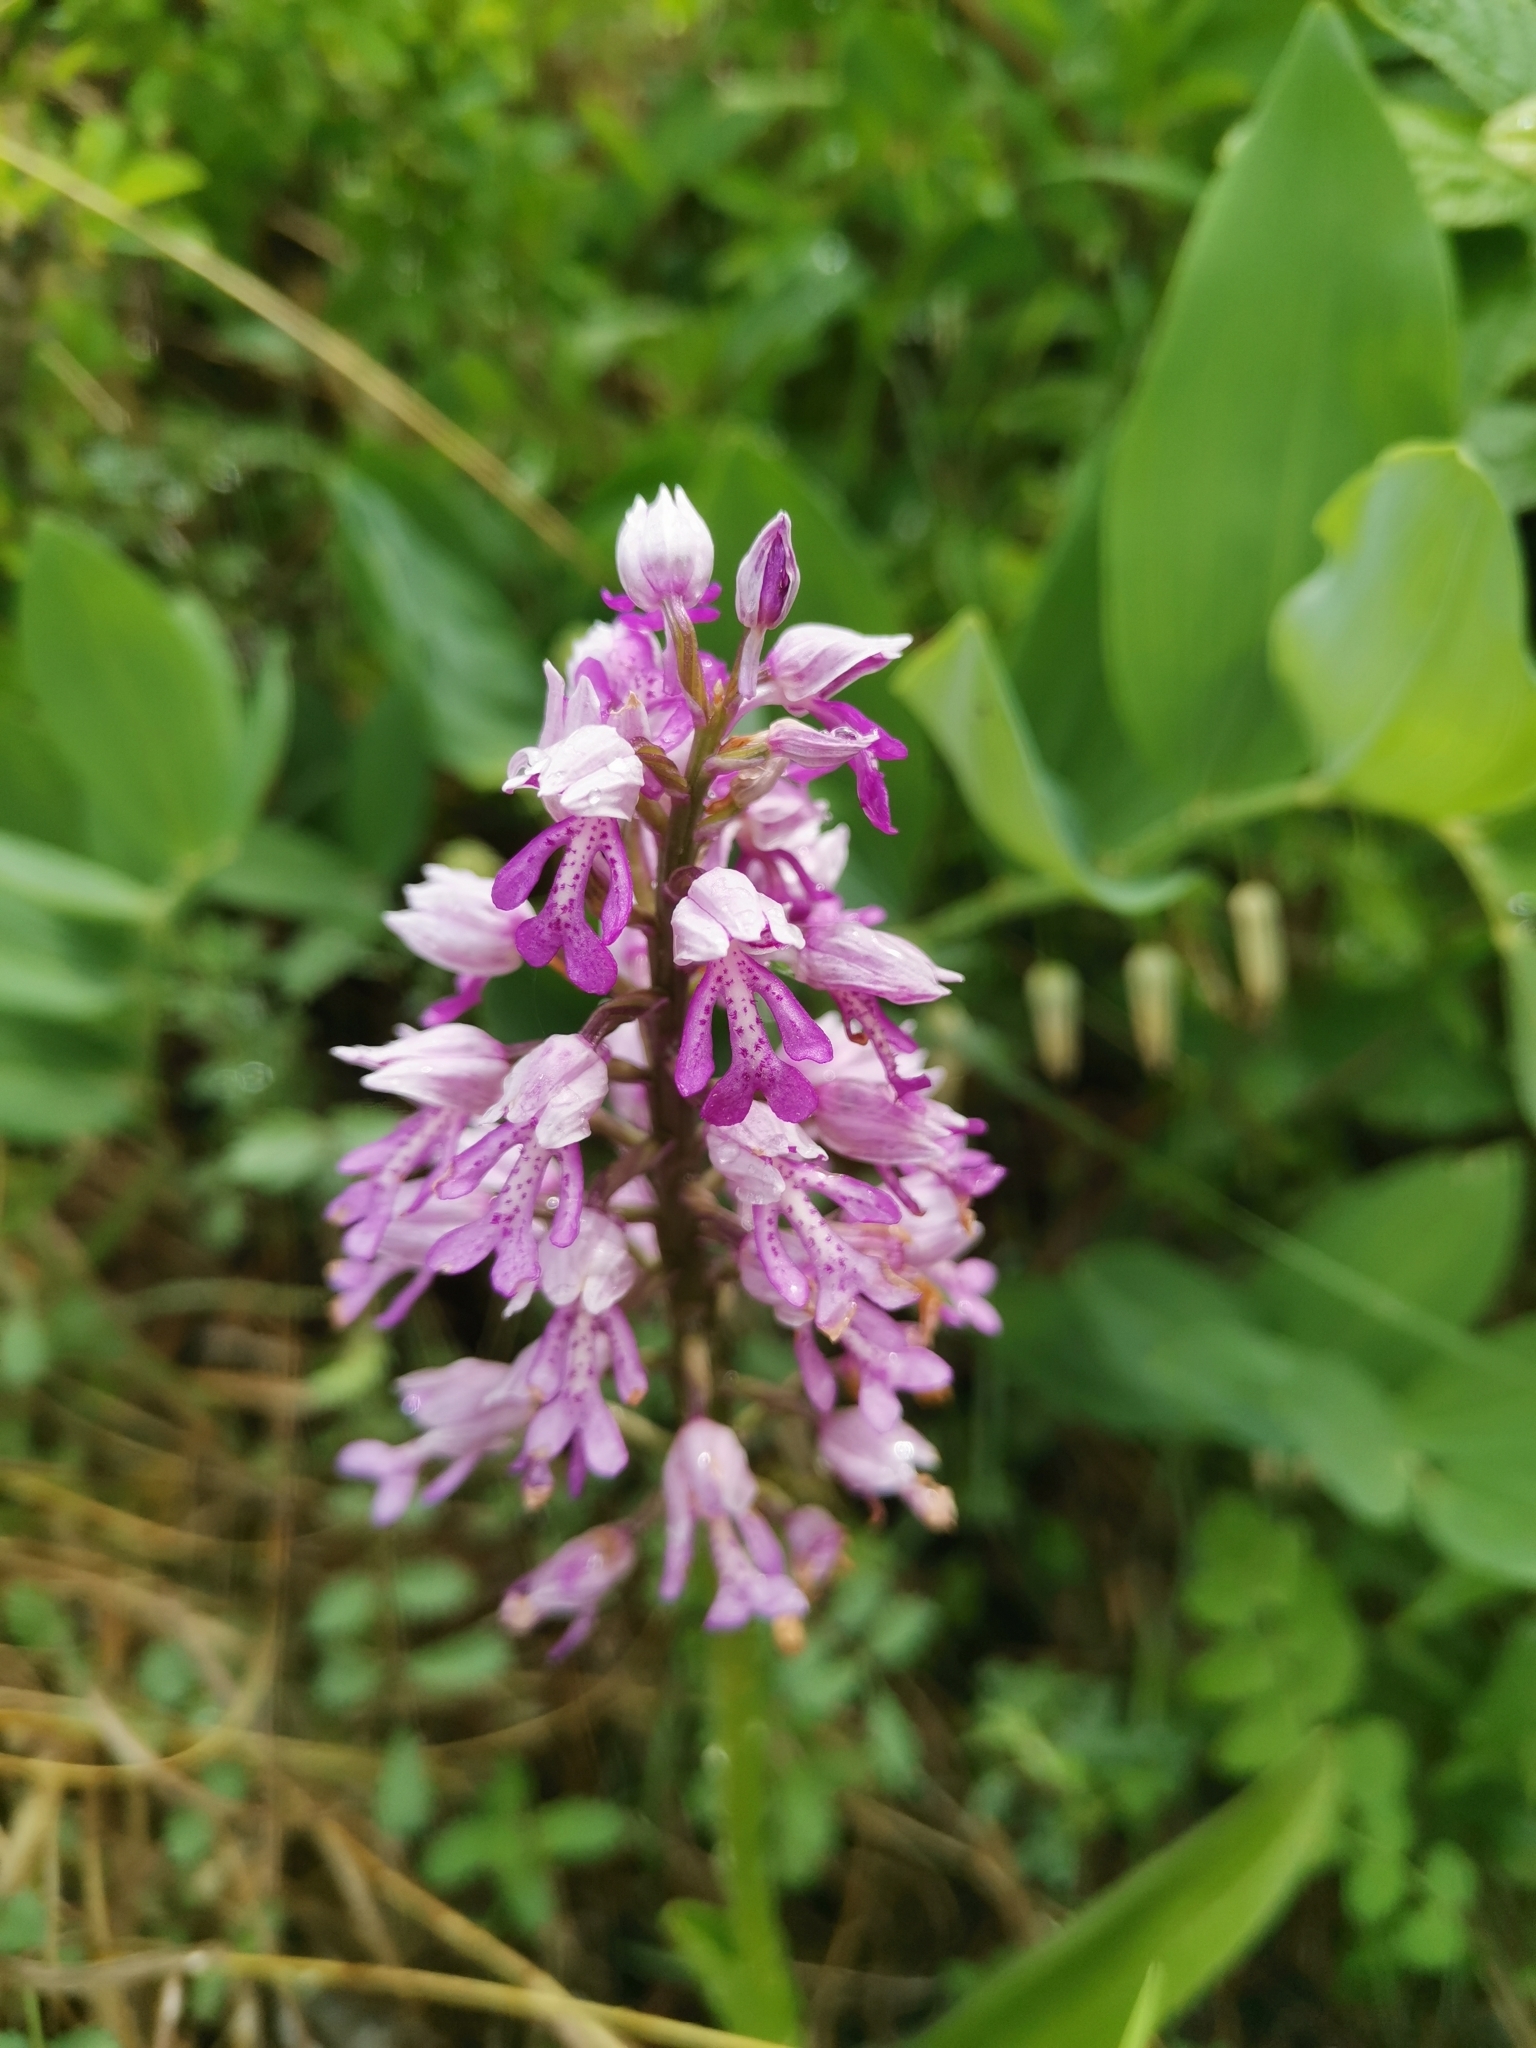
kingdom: Plantae
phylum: Tracheophyta
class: Liliopsida
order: Asparagales
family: Orchidaceae
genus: Orchis
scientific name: Orchis militaris
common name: Military orchid
